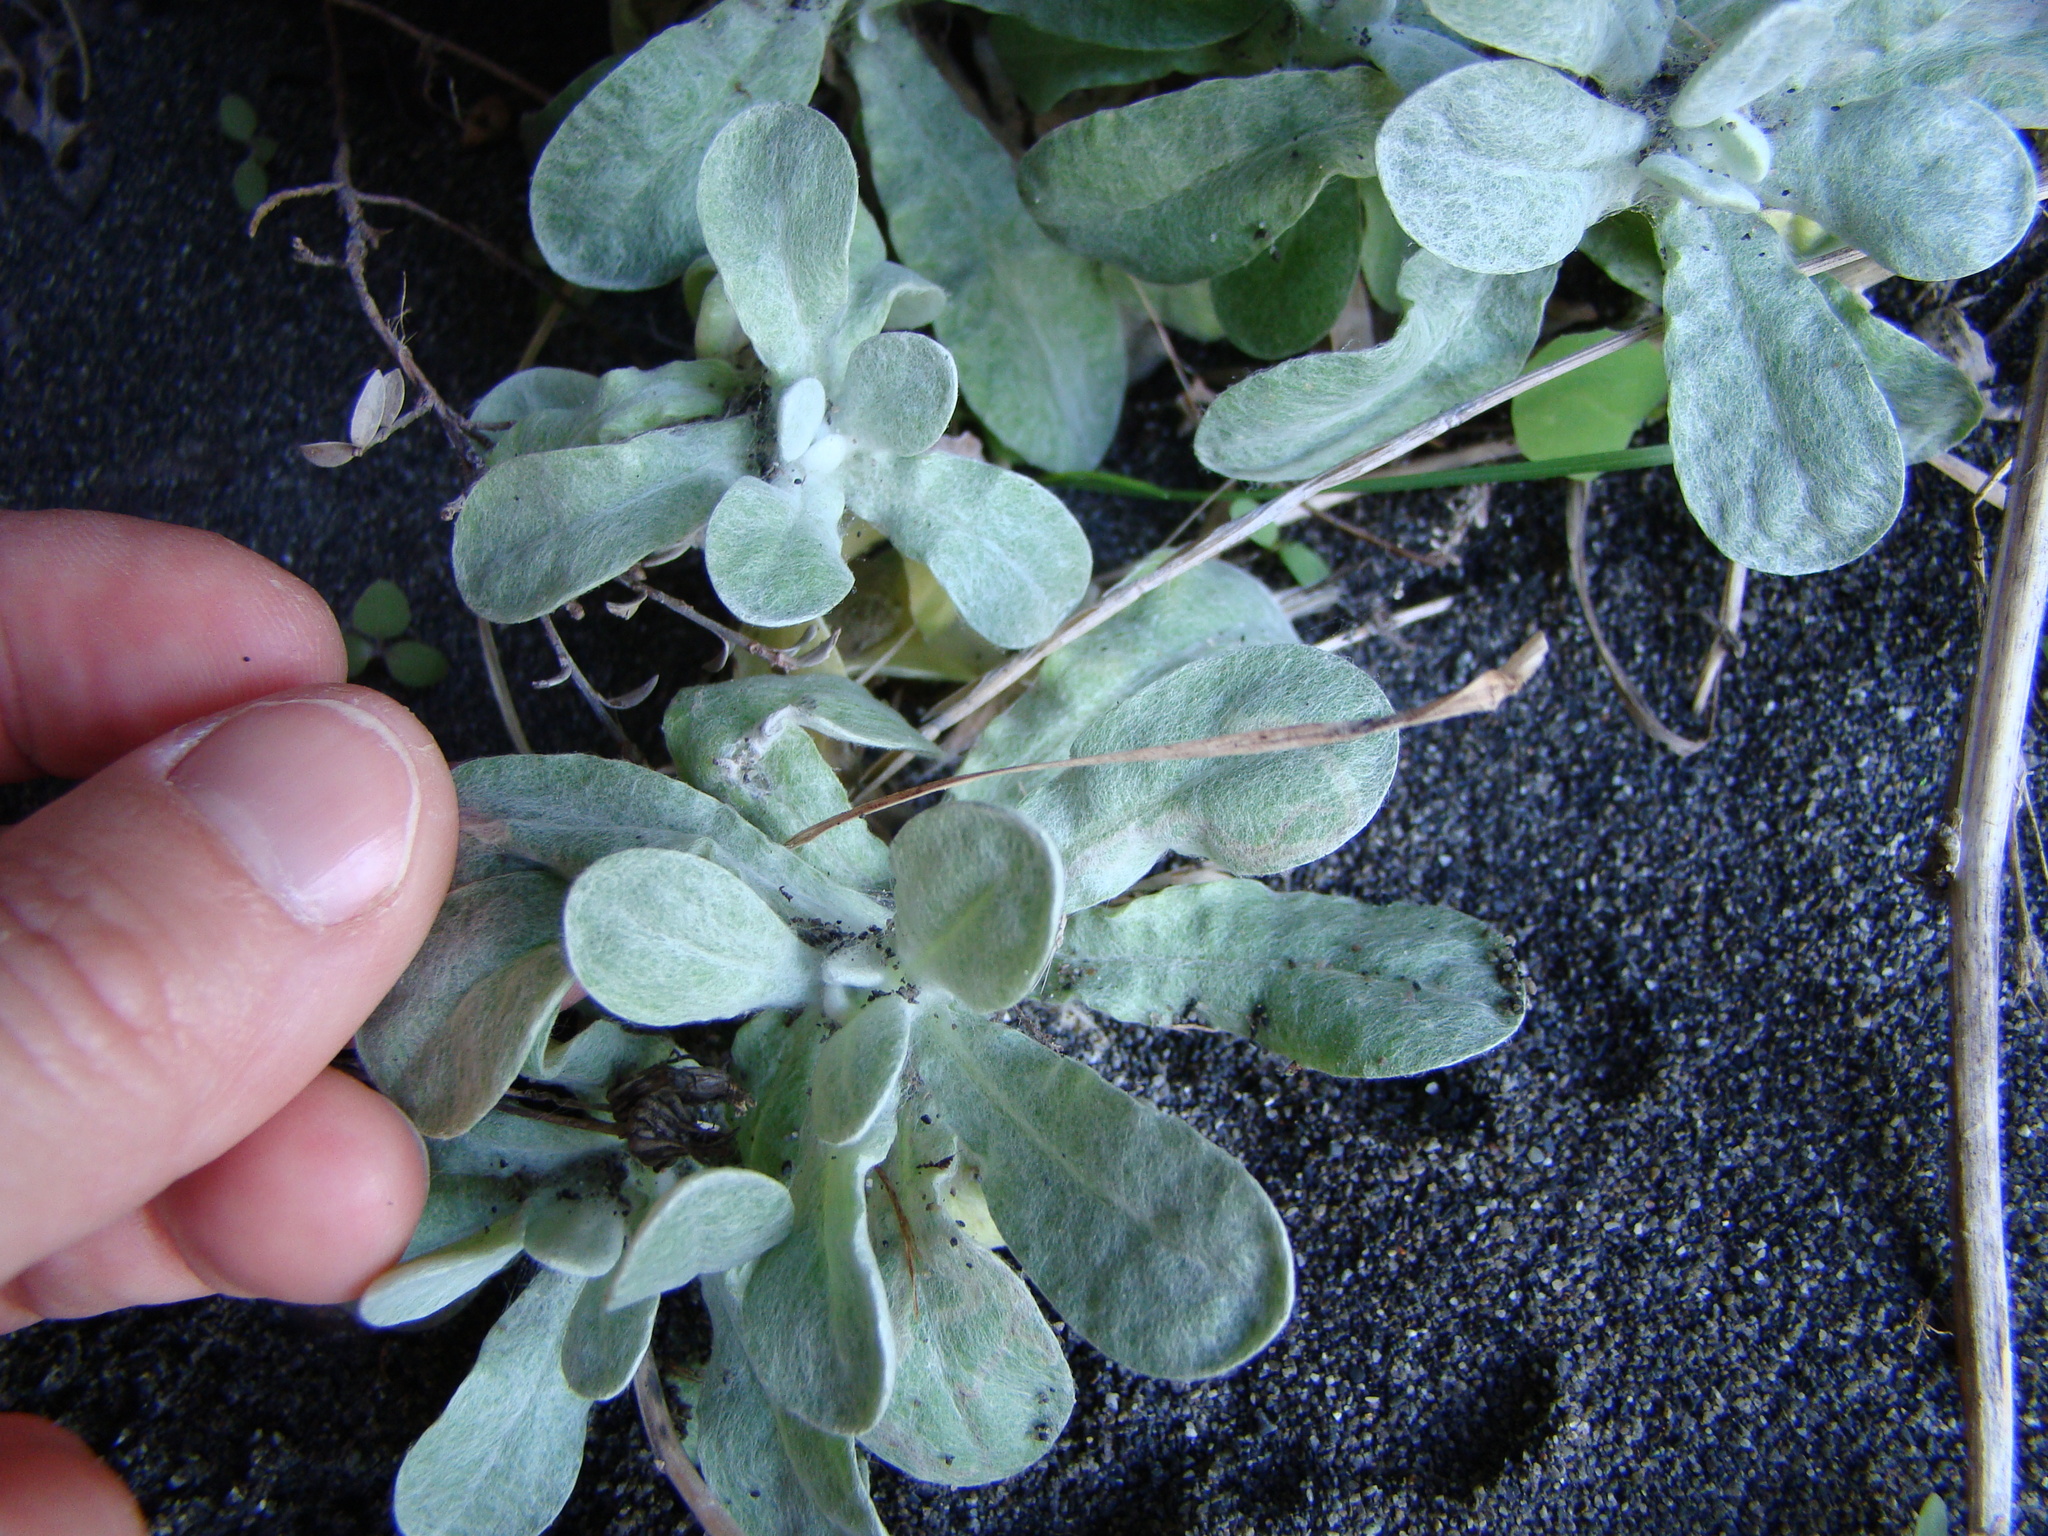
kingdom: Plantae
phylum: Tracheophyta
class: Magnoliopsida
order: Asterales
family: Asteraceae
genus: Pseudognaphalium
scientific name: Pseudognaphalium
